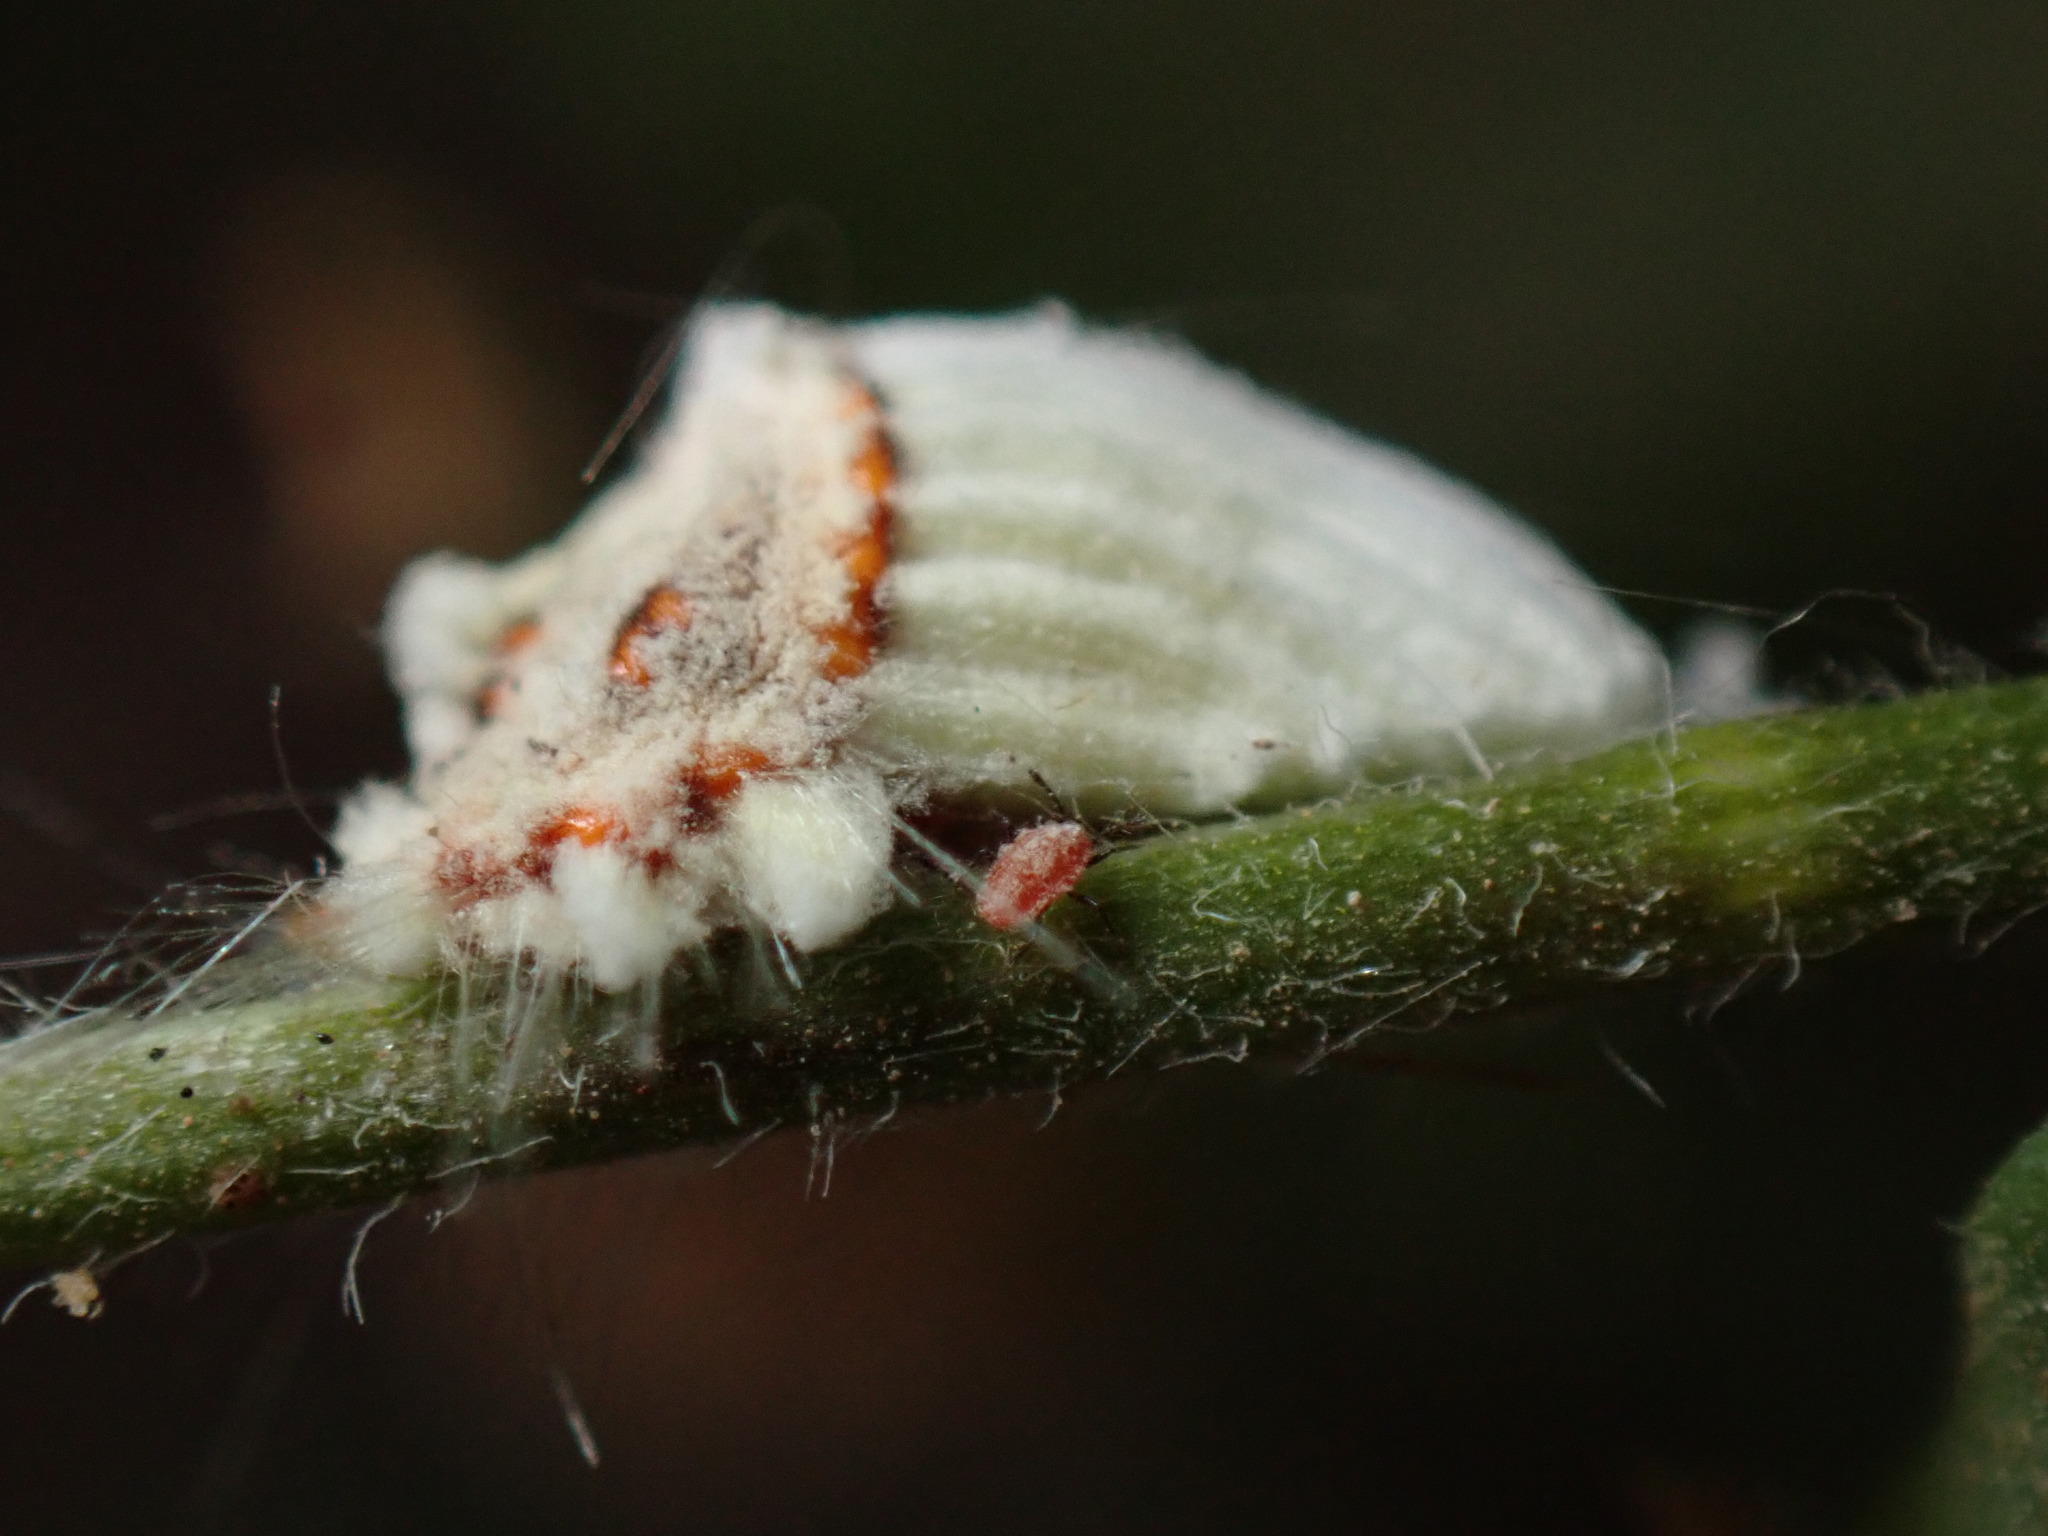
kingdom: Animalia
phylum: Arthropoda
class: Insecta
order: Hemiptera
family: Margarodidae
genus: Icerya
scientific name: Icerya purchasi
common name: Cottony cushion scale
